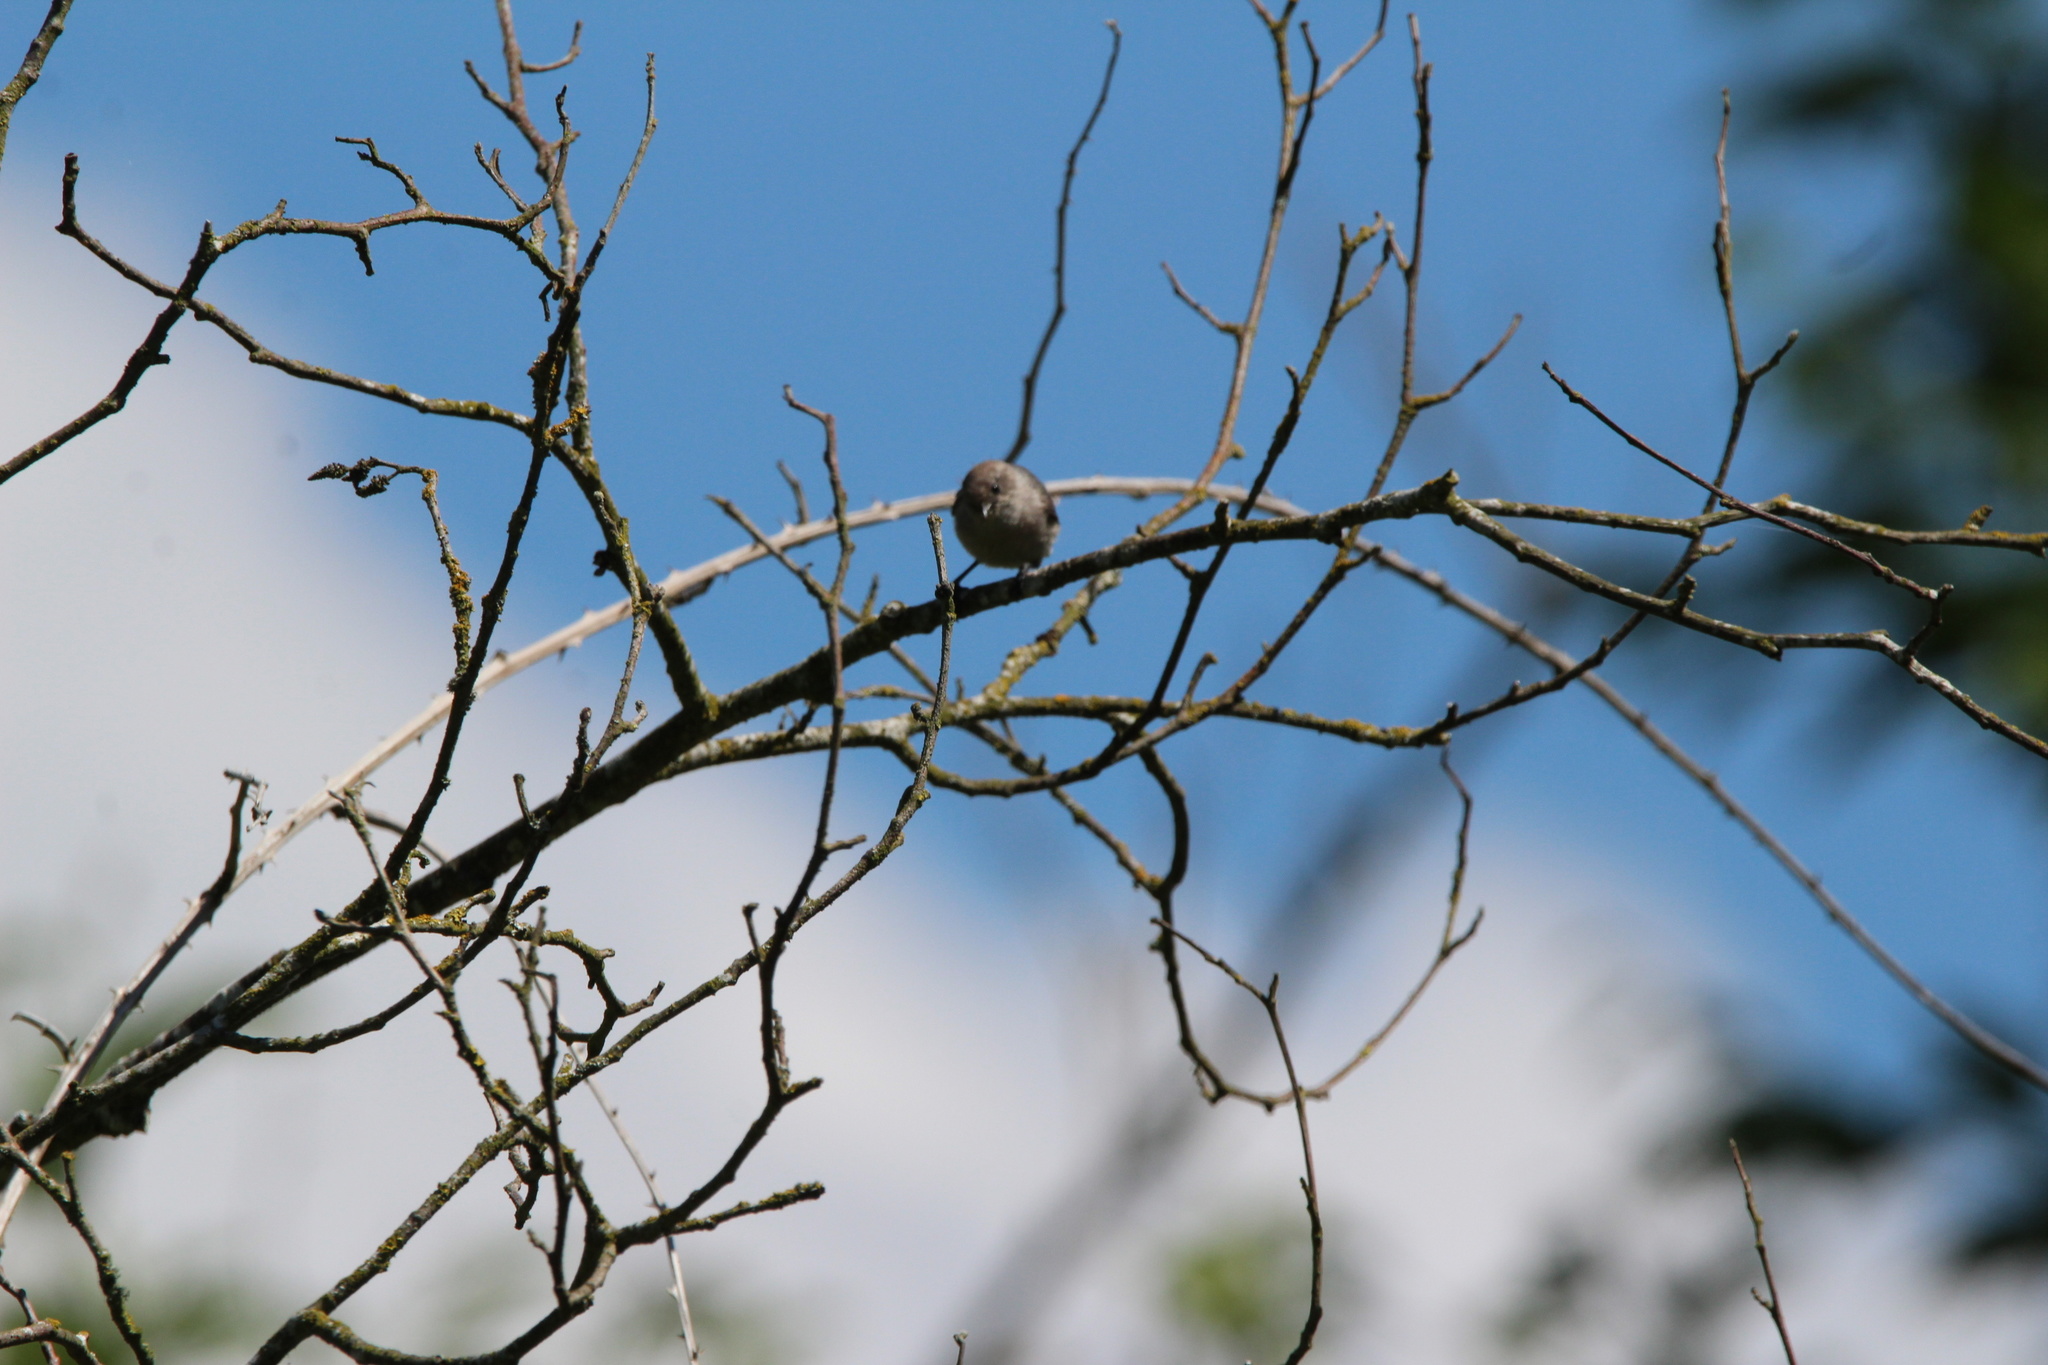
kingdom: Animalia
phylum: Chordata
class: Aves
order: Passeriformes
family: Aegithalidae
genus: Psaltriparus
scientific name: Psaltriparus minimus
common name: American bushtit
